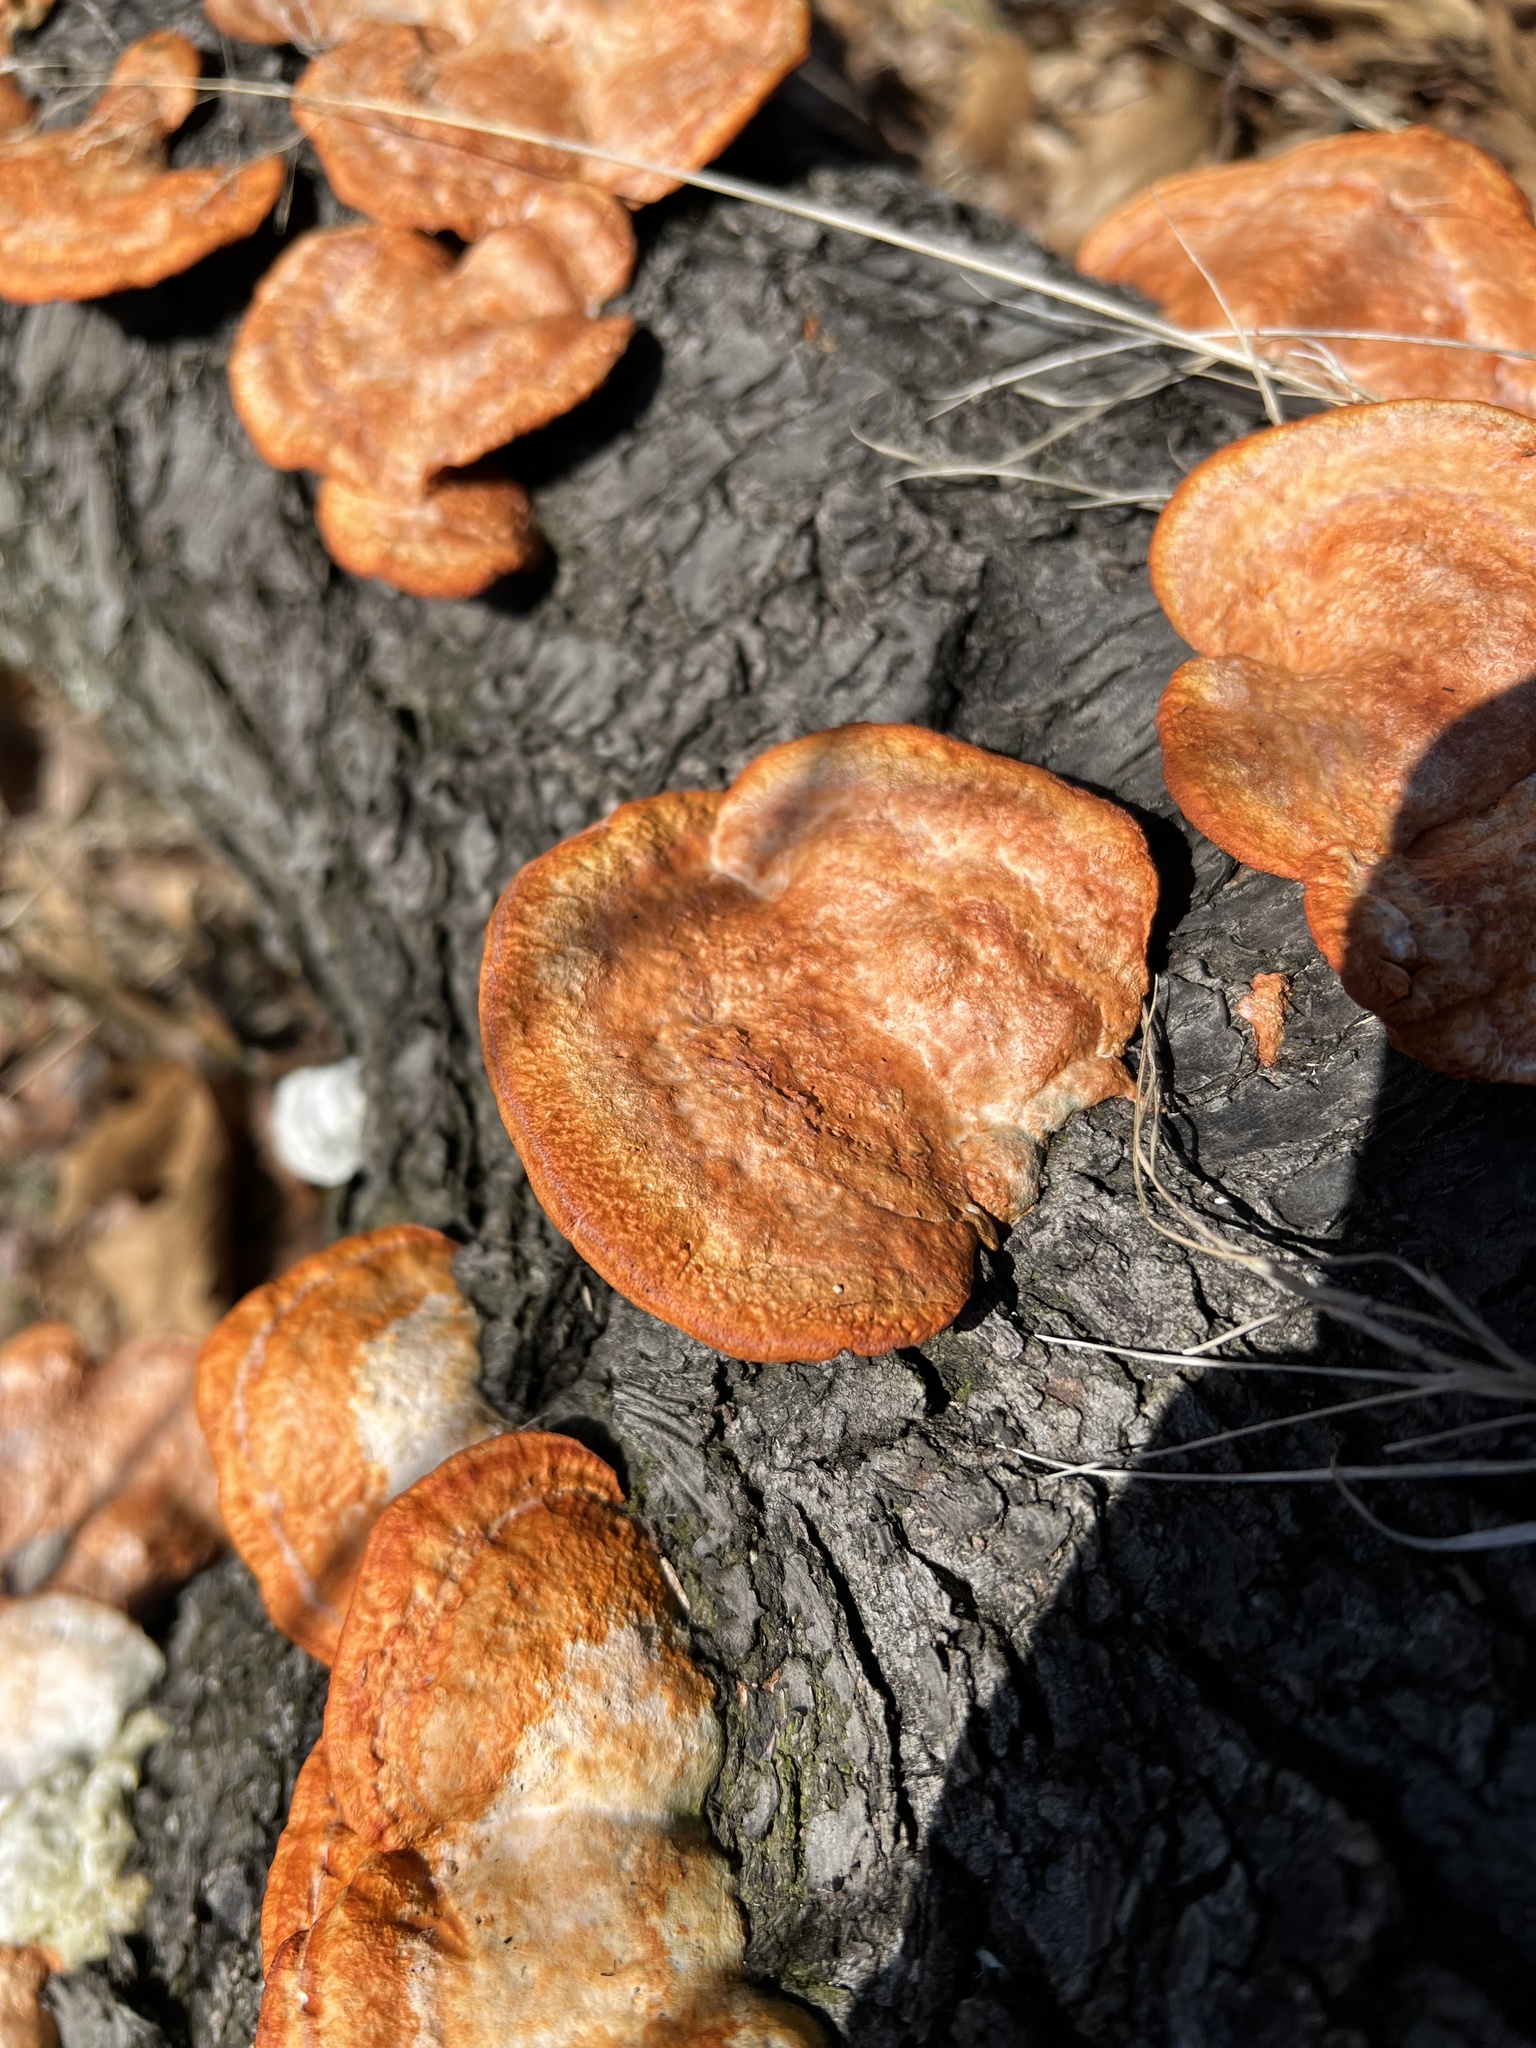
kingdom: Fungi
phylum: Basidiomycota
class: Agaricomycetes
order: Polyporales
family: Polyporaceae
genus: Trametes
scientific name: Trametes cinnabarina
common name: Northern cinnabar polypore
